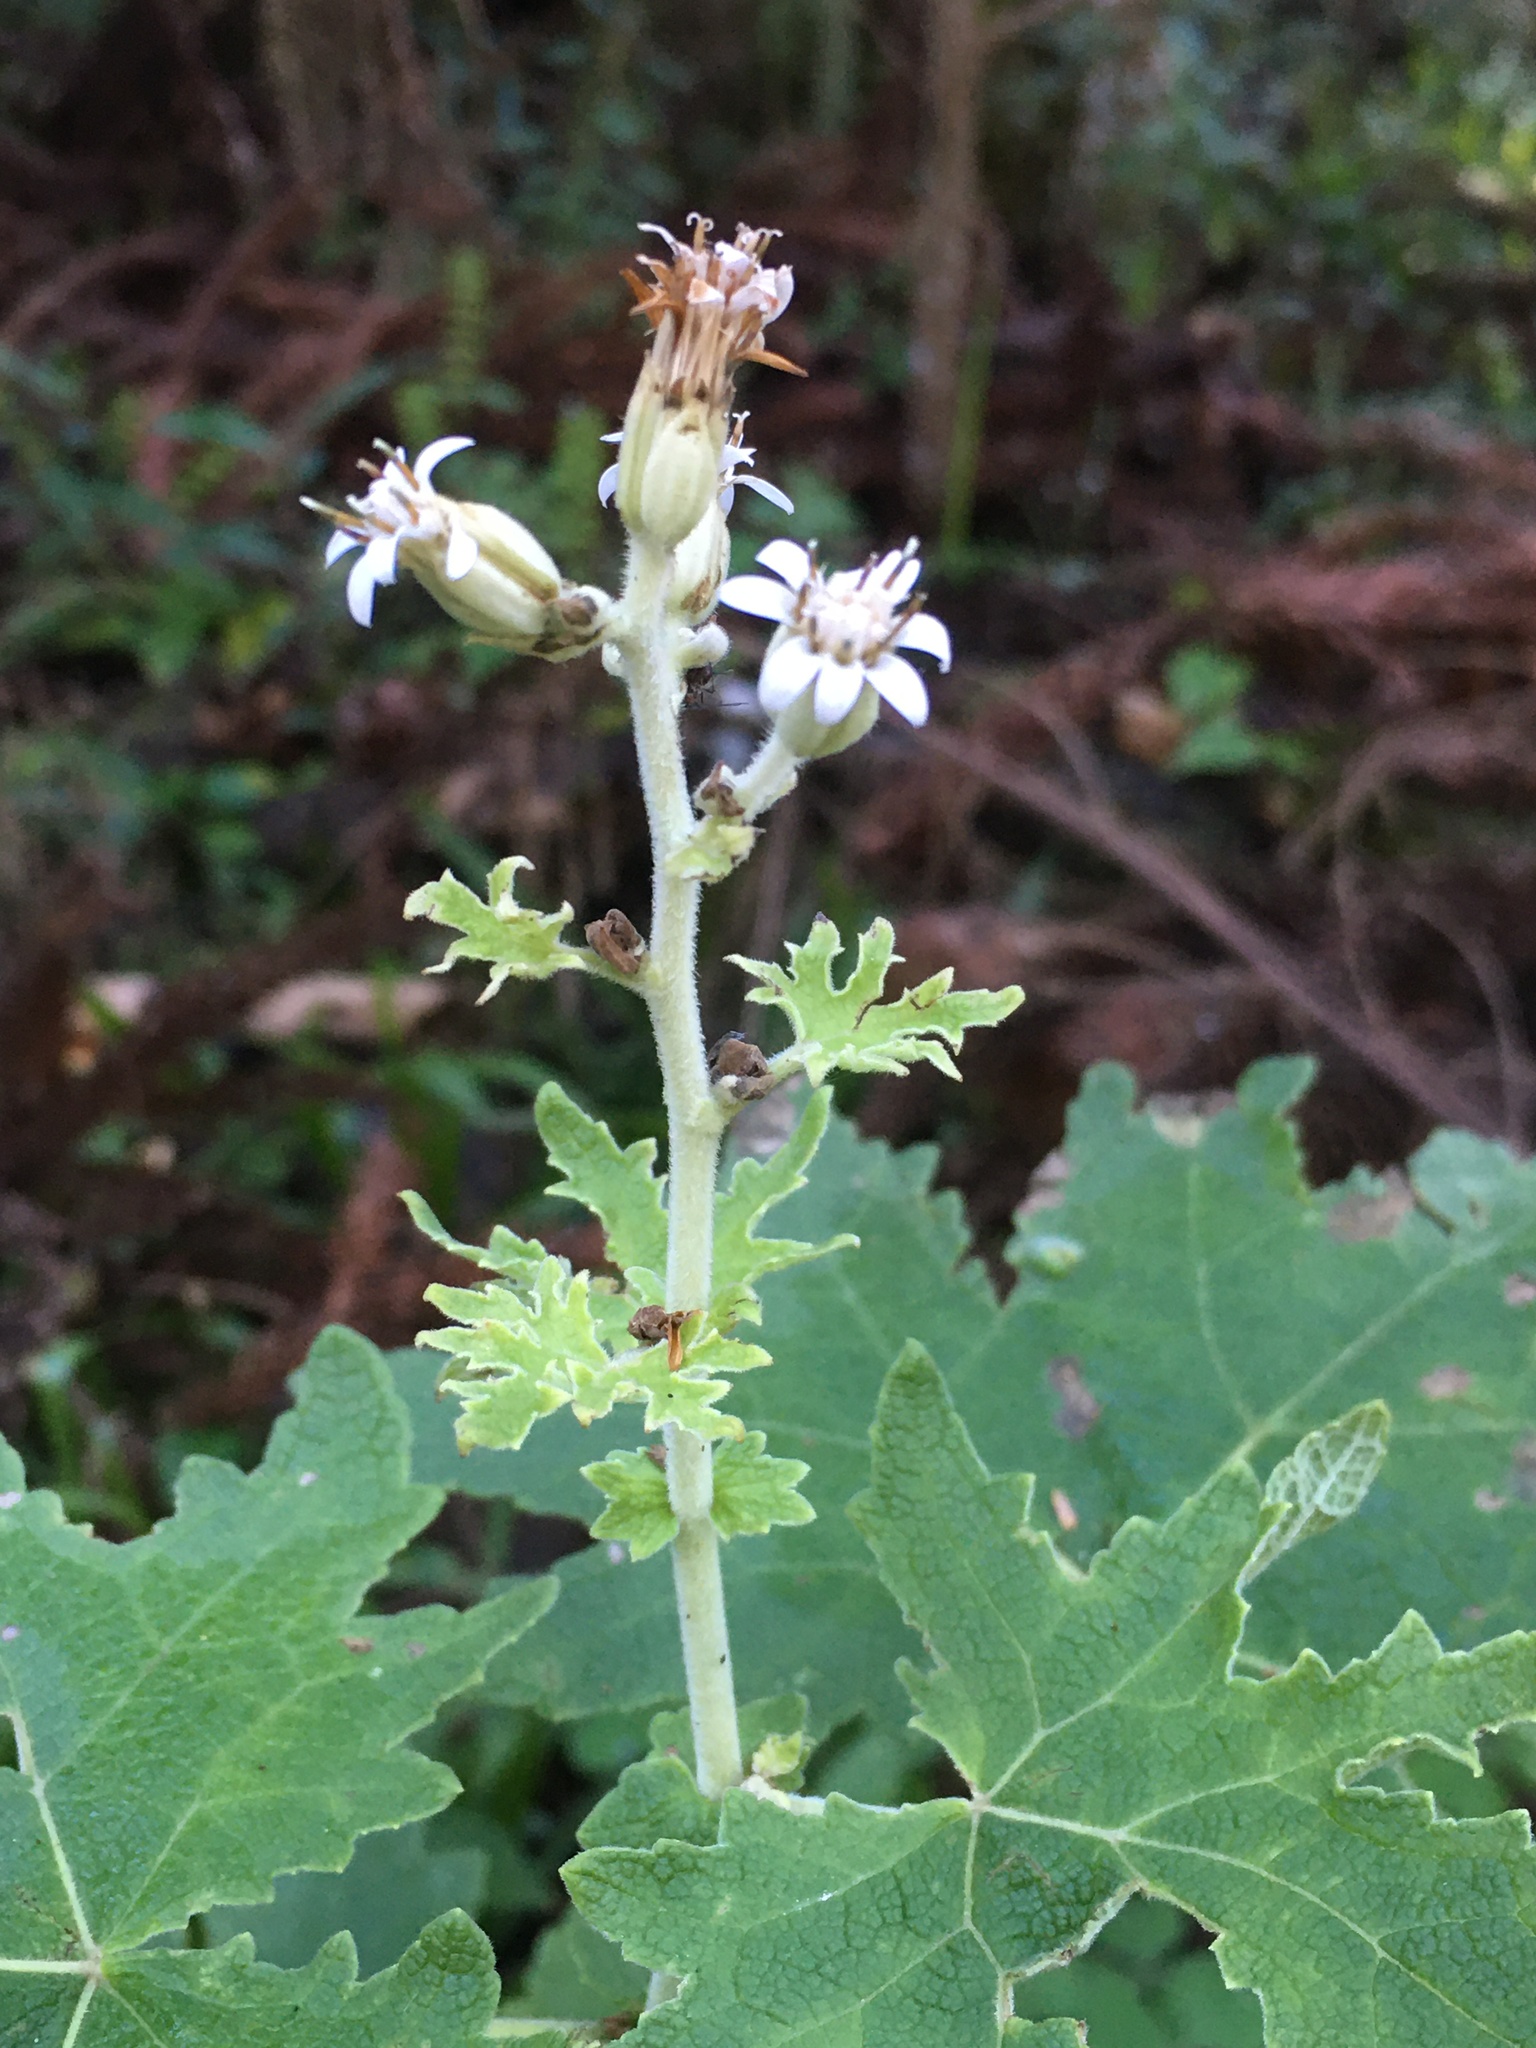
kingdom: Plantae
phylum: Tracheophyta
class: Magnoliopsida
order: Asterales
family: Asteraceae
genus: Jungia
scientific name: Jungia sellowii
